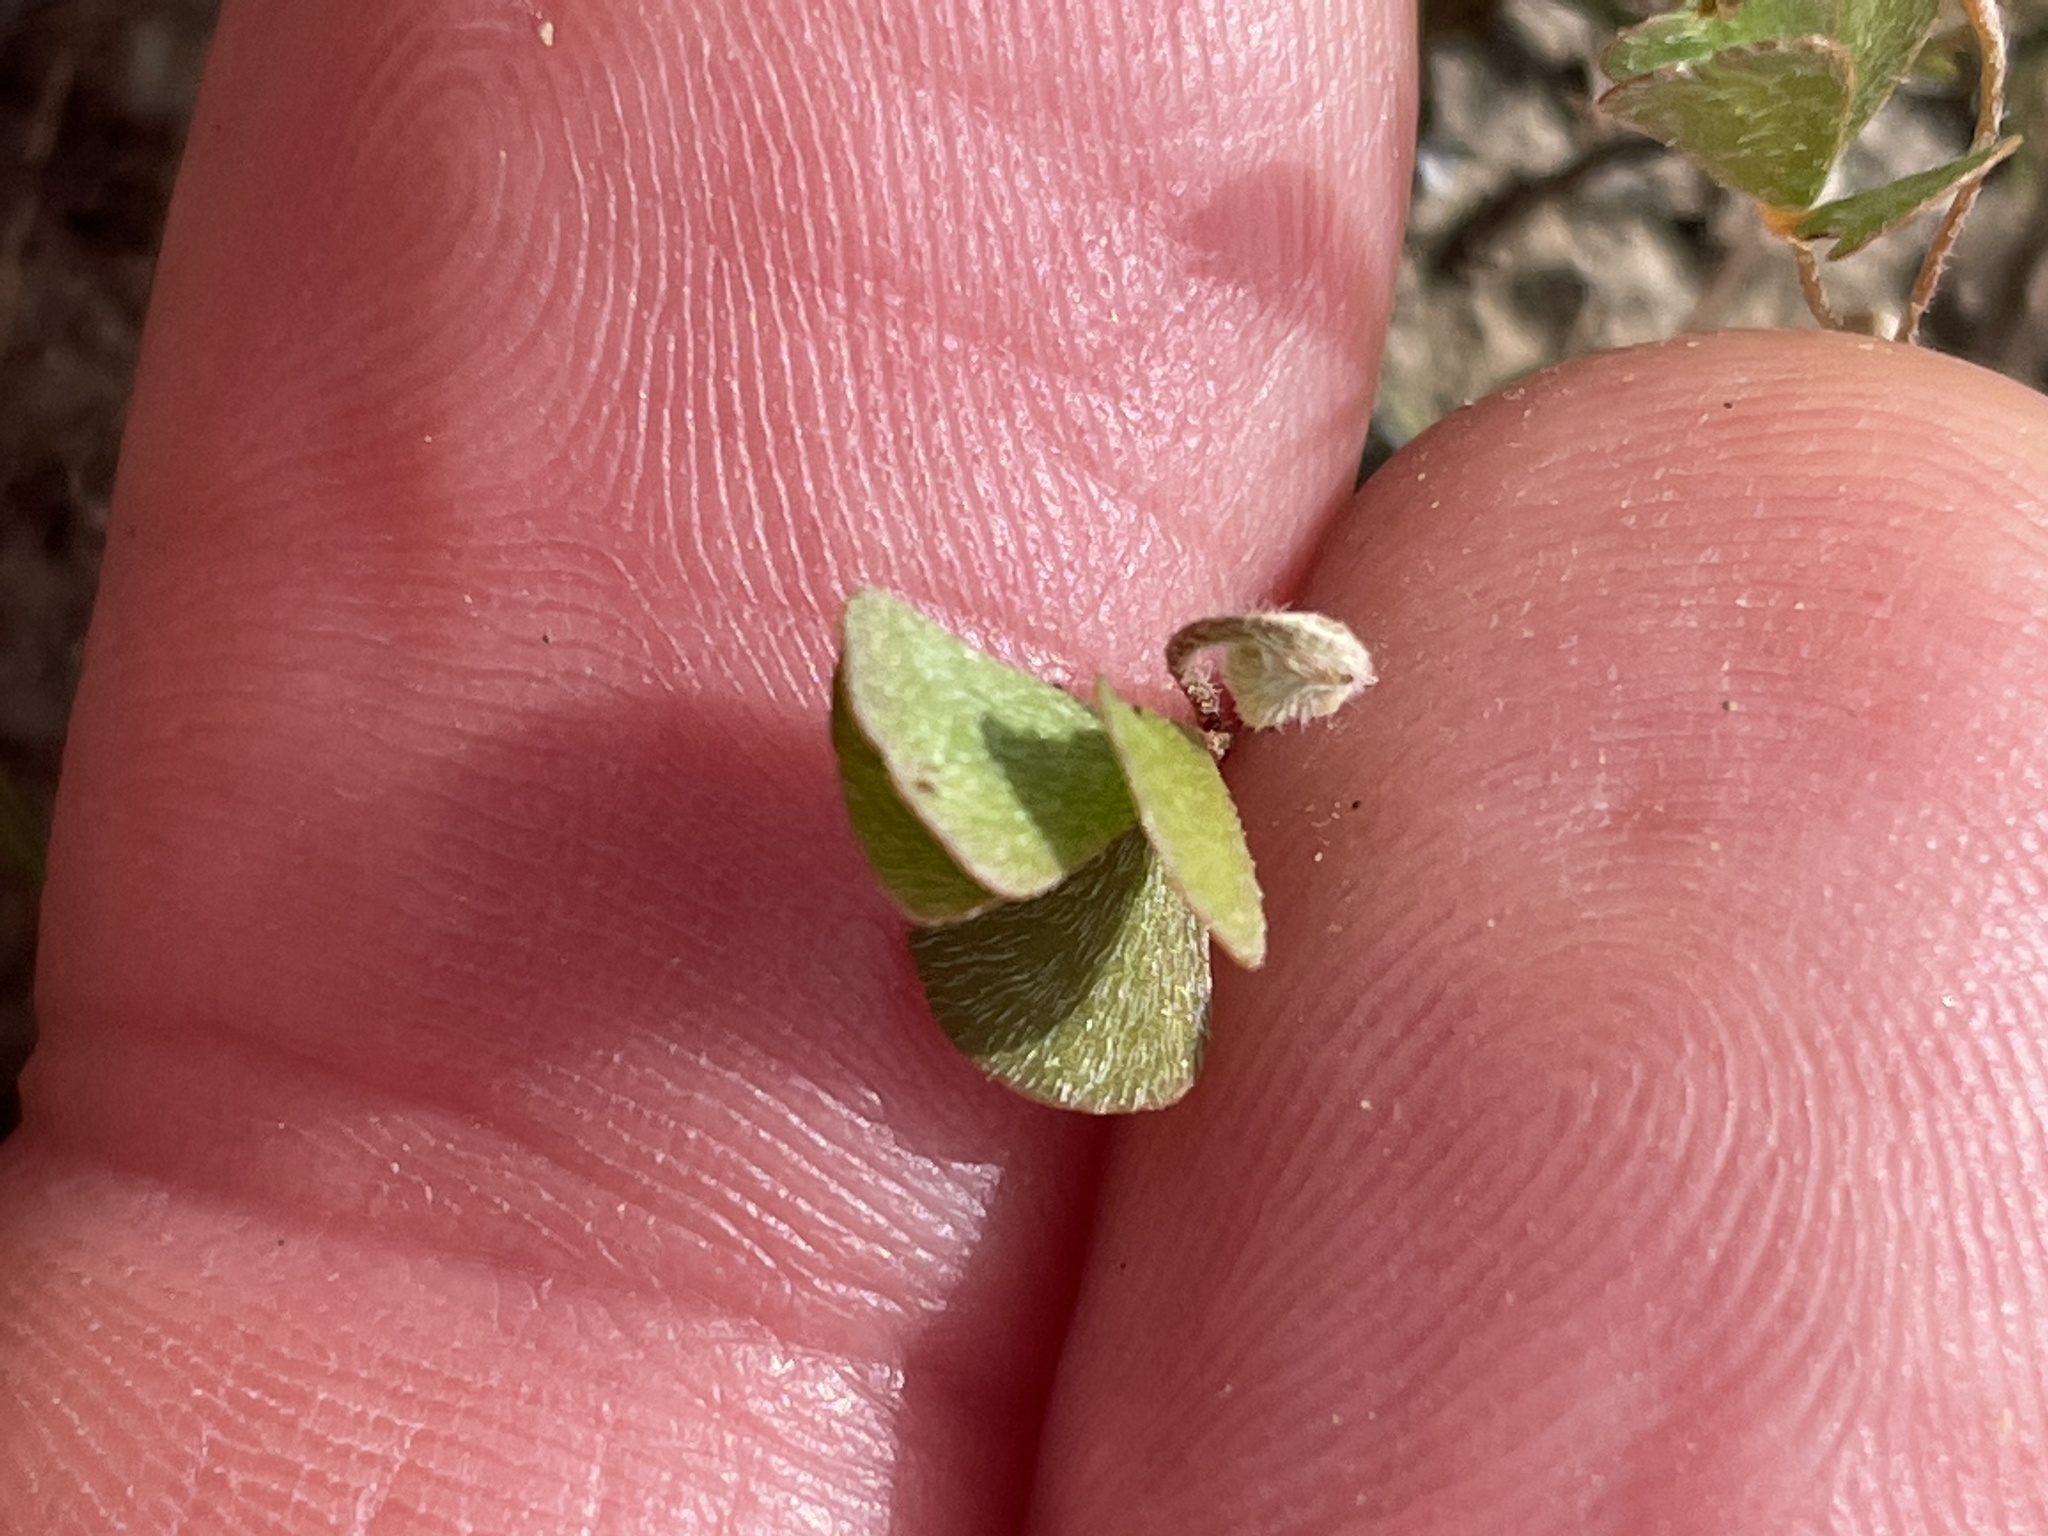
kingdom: Plantae
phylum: Tracheophyta
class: Polypodiopsida
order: Salviniales
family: Marsileaceae
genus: Marsilea
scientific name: Marsilea vestita
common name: Hooked-pepperwort
